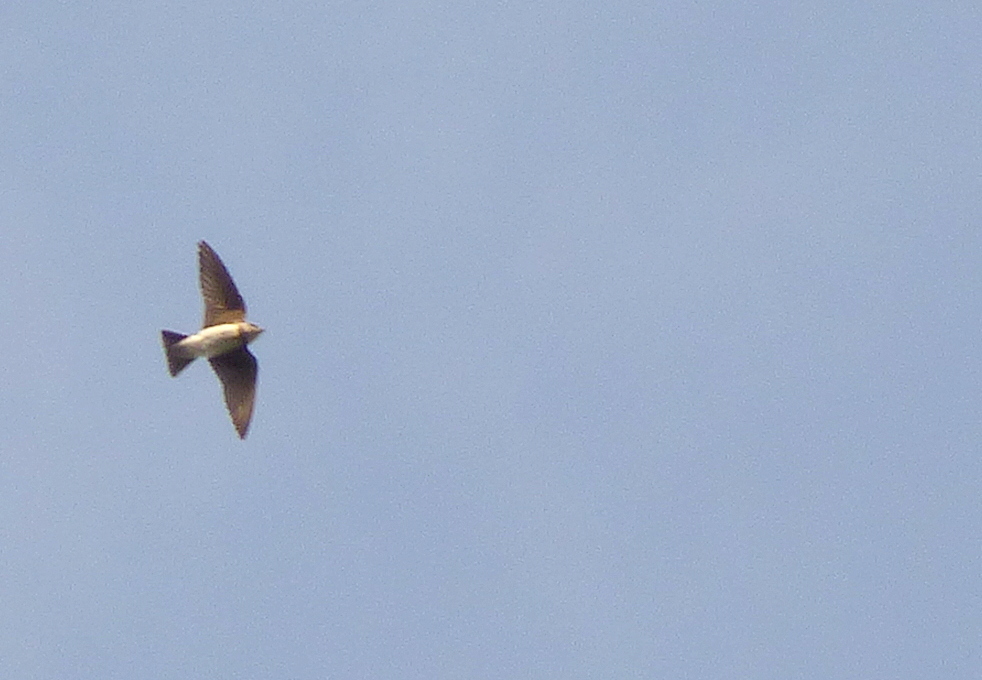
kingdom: Animalia
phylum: Chordata
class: Aves
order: Passeriformes
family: Hirundinidae
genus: Riparia
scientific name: Riparia riparia
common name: Sand martin
